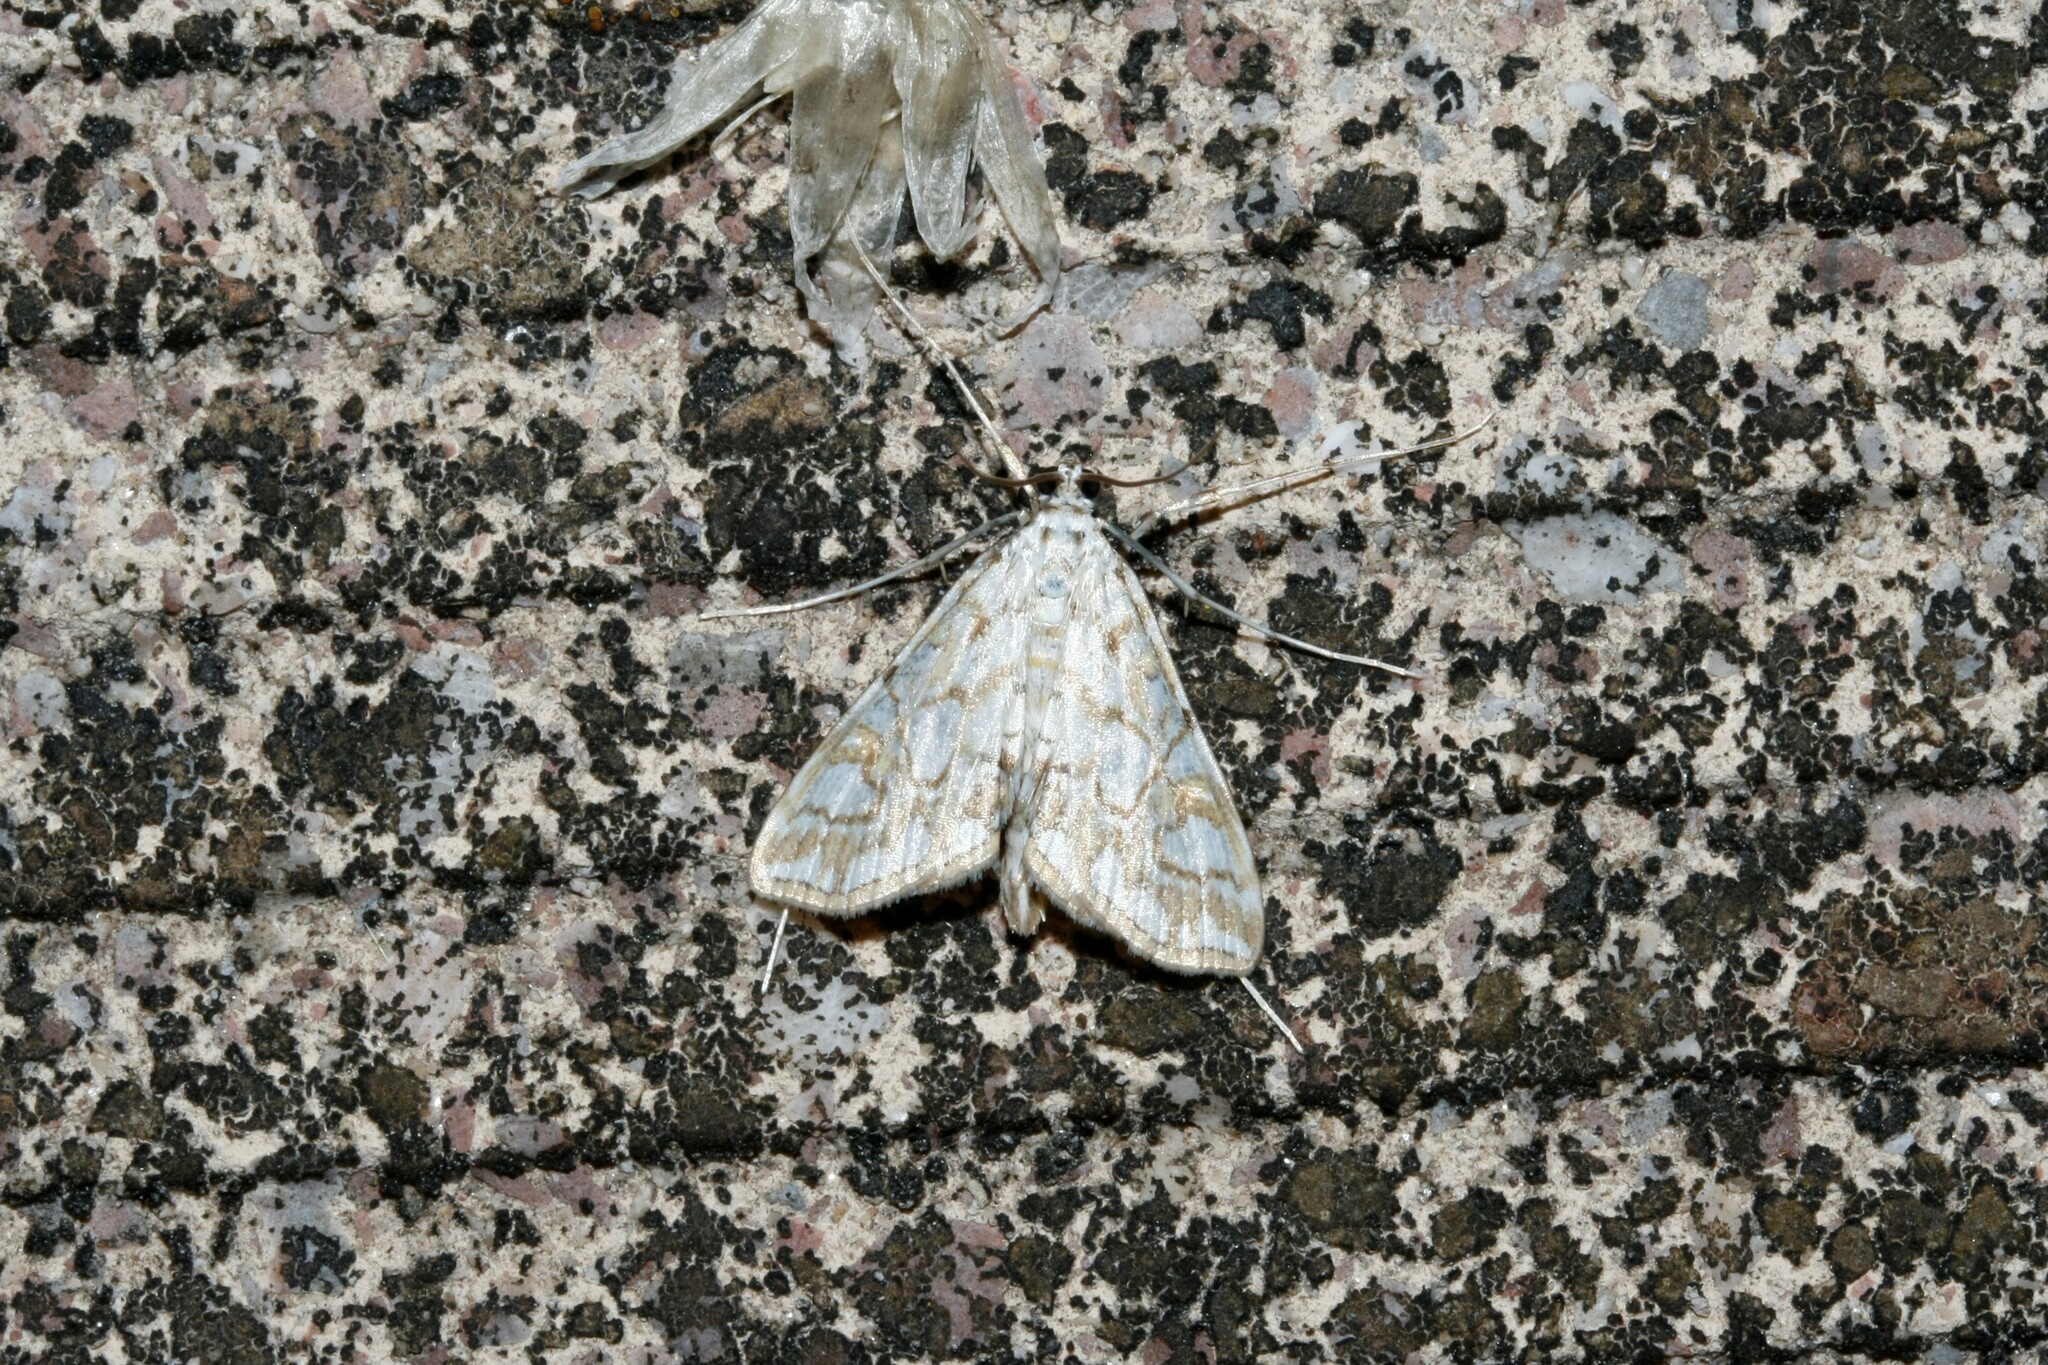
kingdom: Animalia
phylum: Arthropoda
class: Insecta
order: Lepidoptera
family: Crambidae
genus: Elophila
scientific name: Elophila nymphaeata
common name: Brown china-mark
